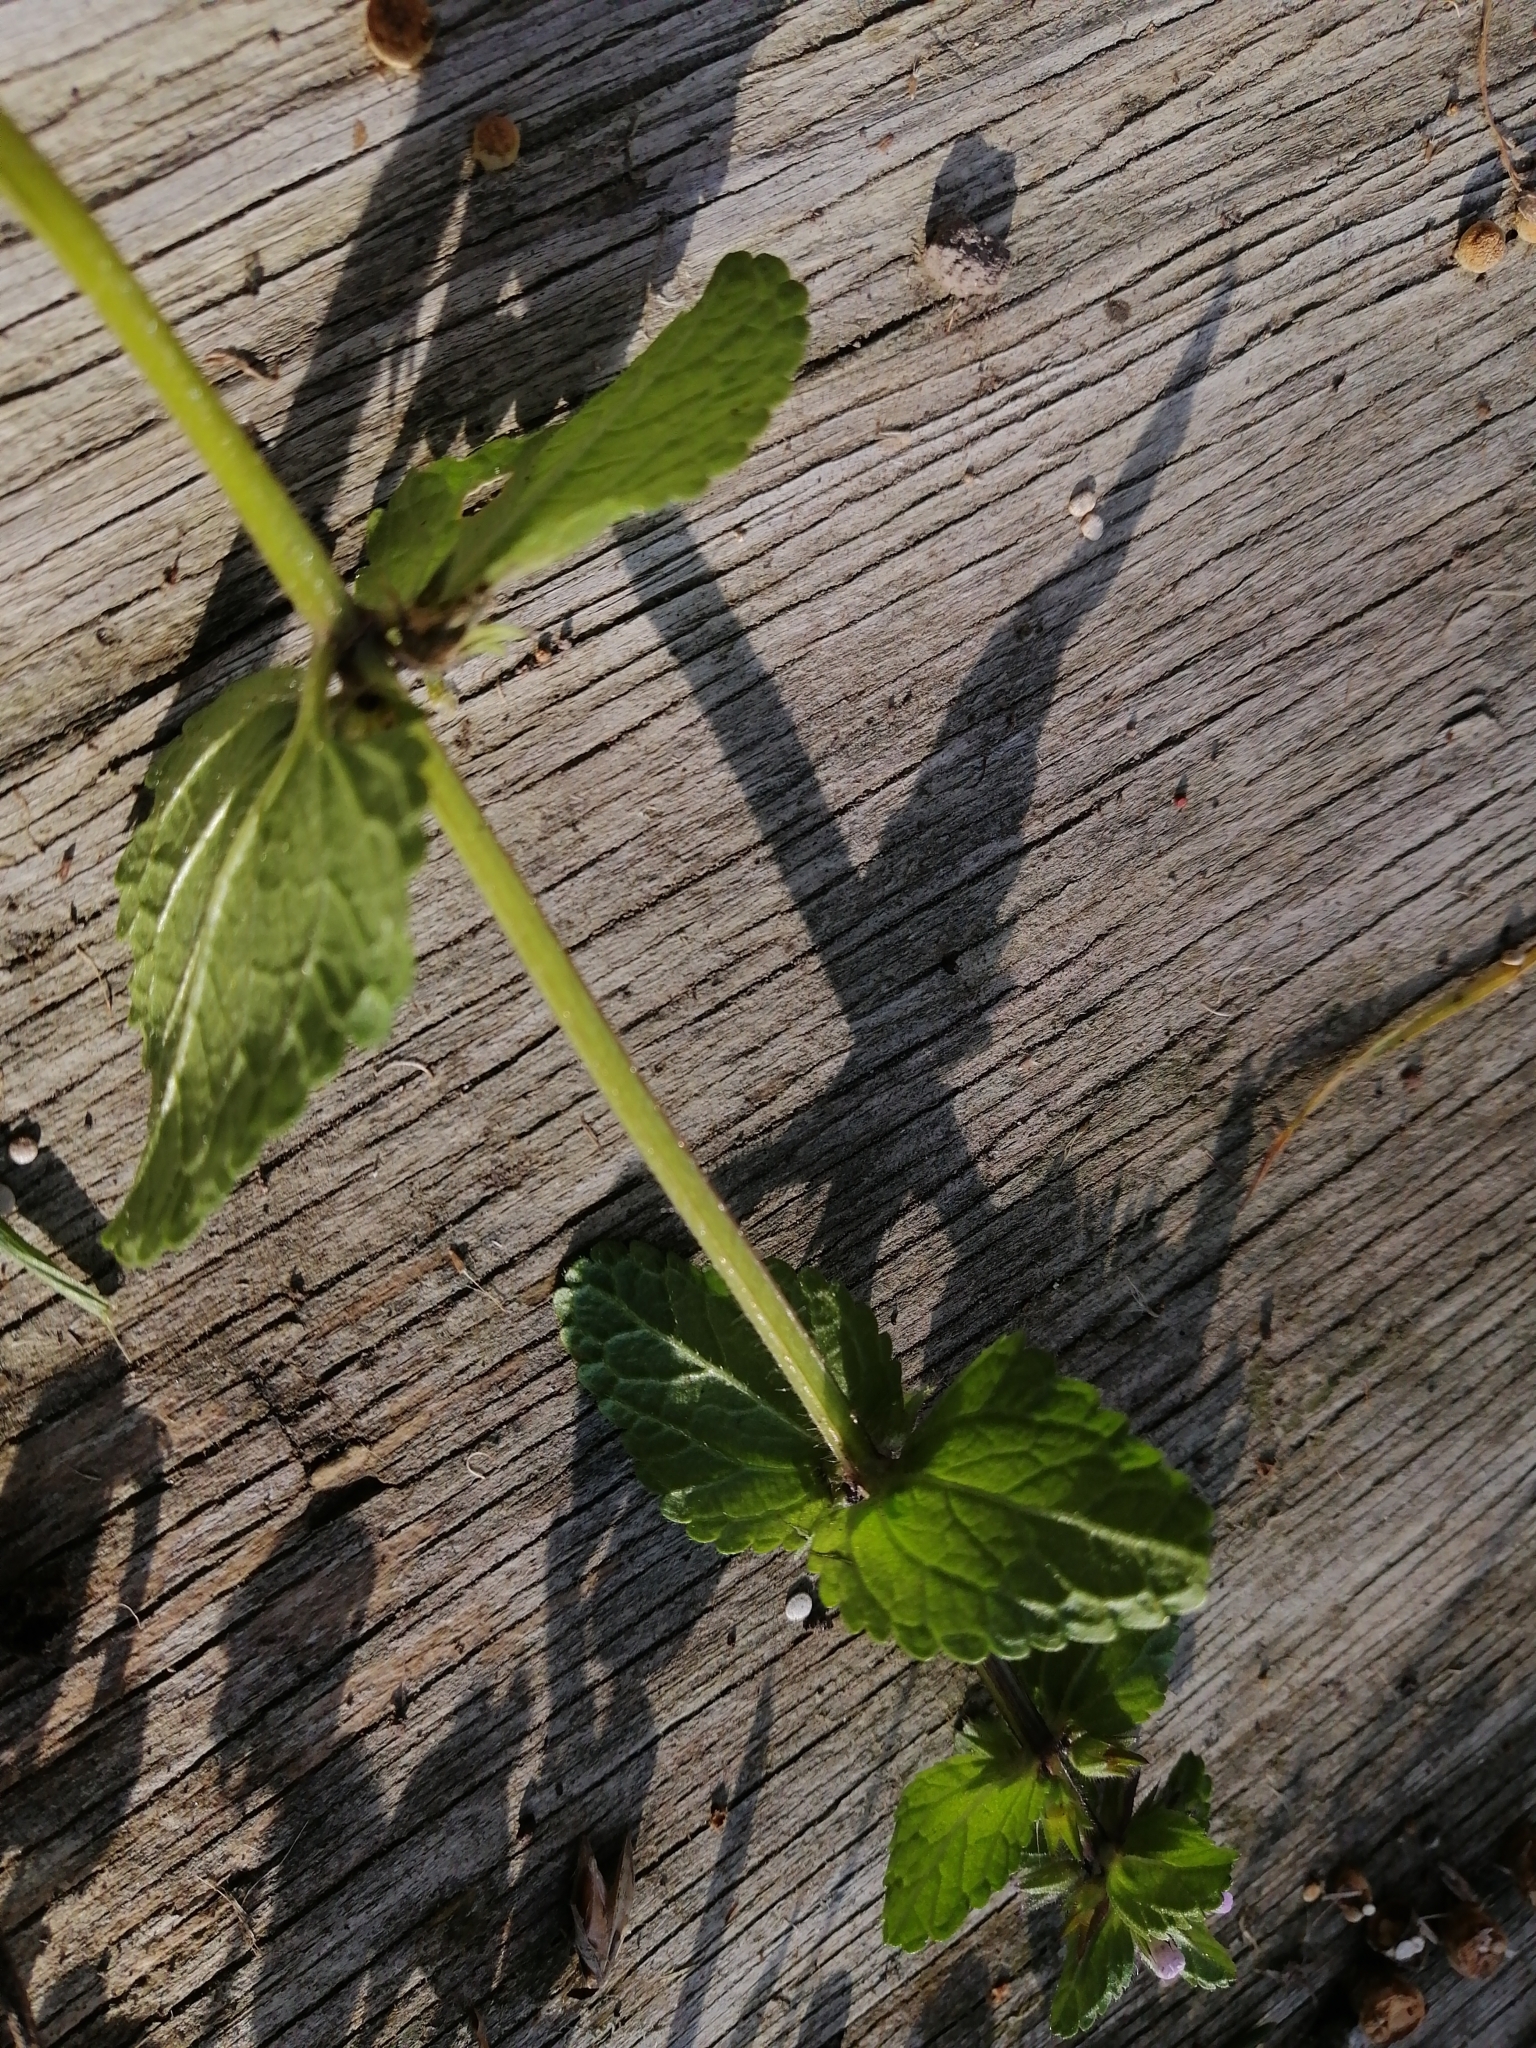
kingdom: Plantae
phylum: Tracheophyta
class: Magnoliopsida
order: Lamiales
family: Lamiaceae
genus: Stachys
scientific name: Stachys arvensis
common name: Field woundwort
